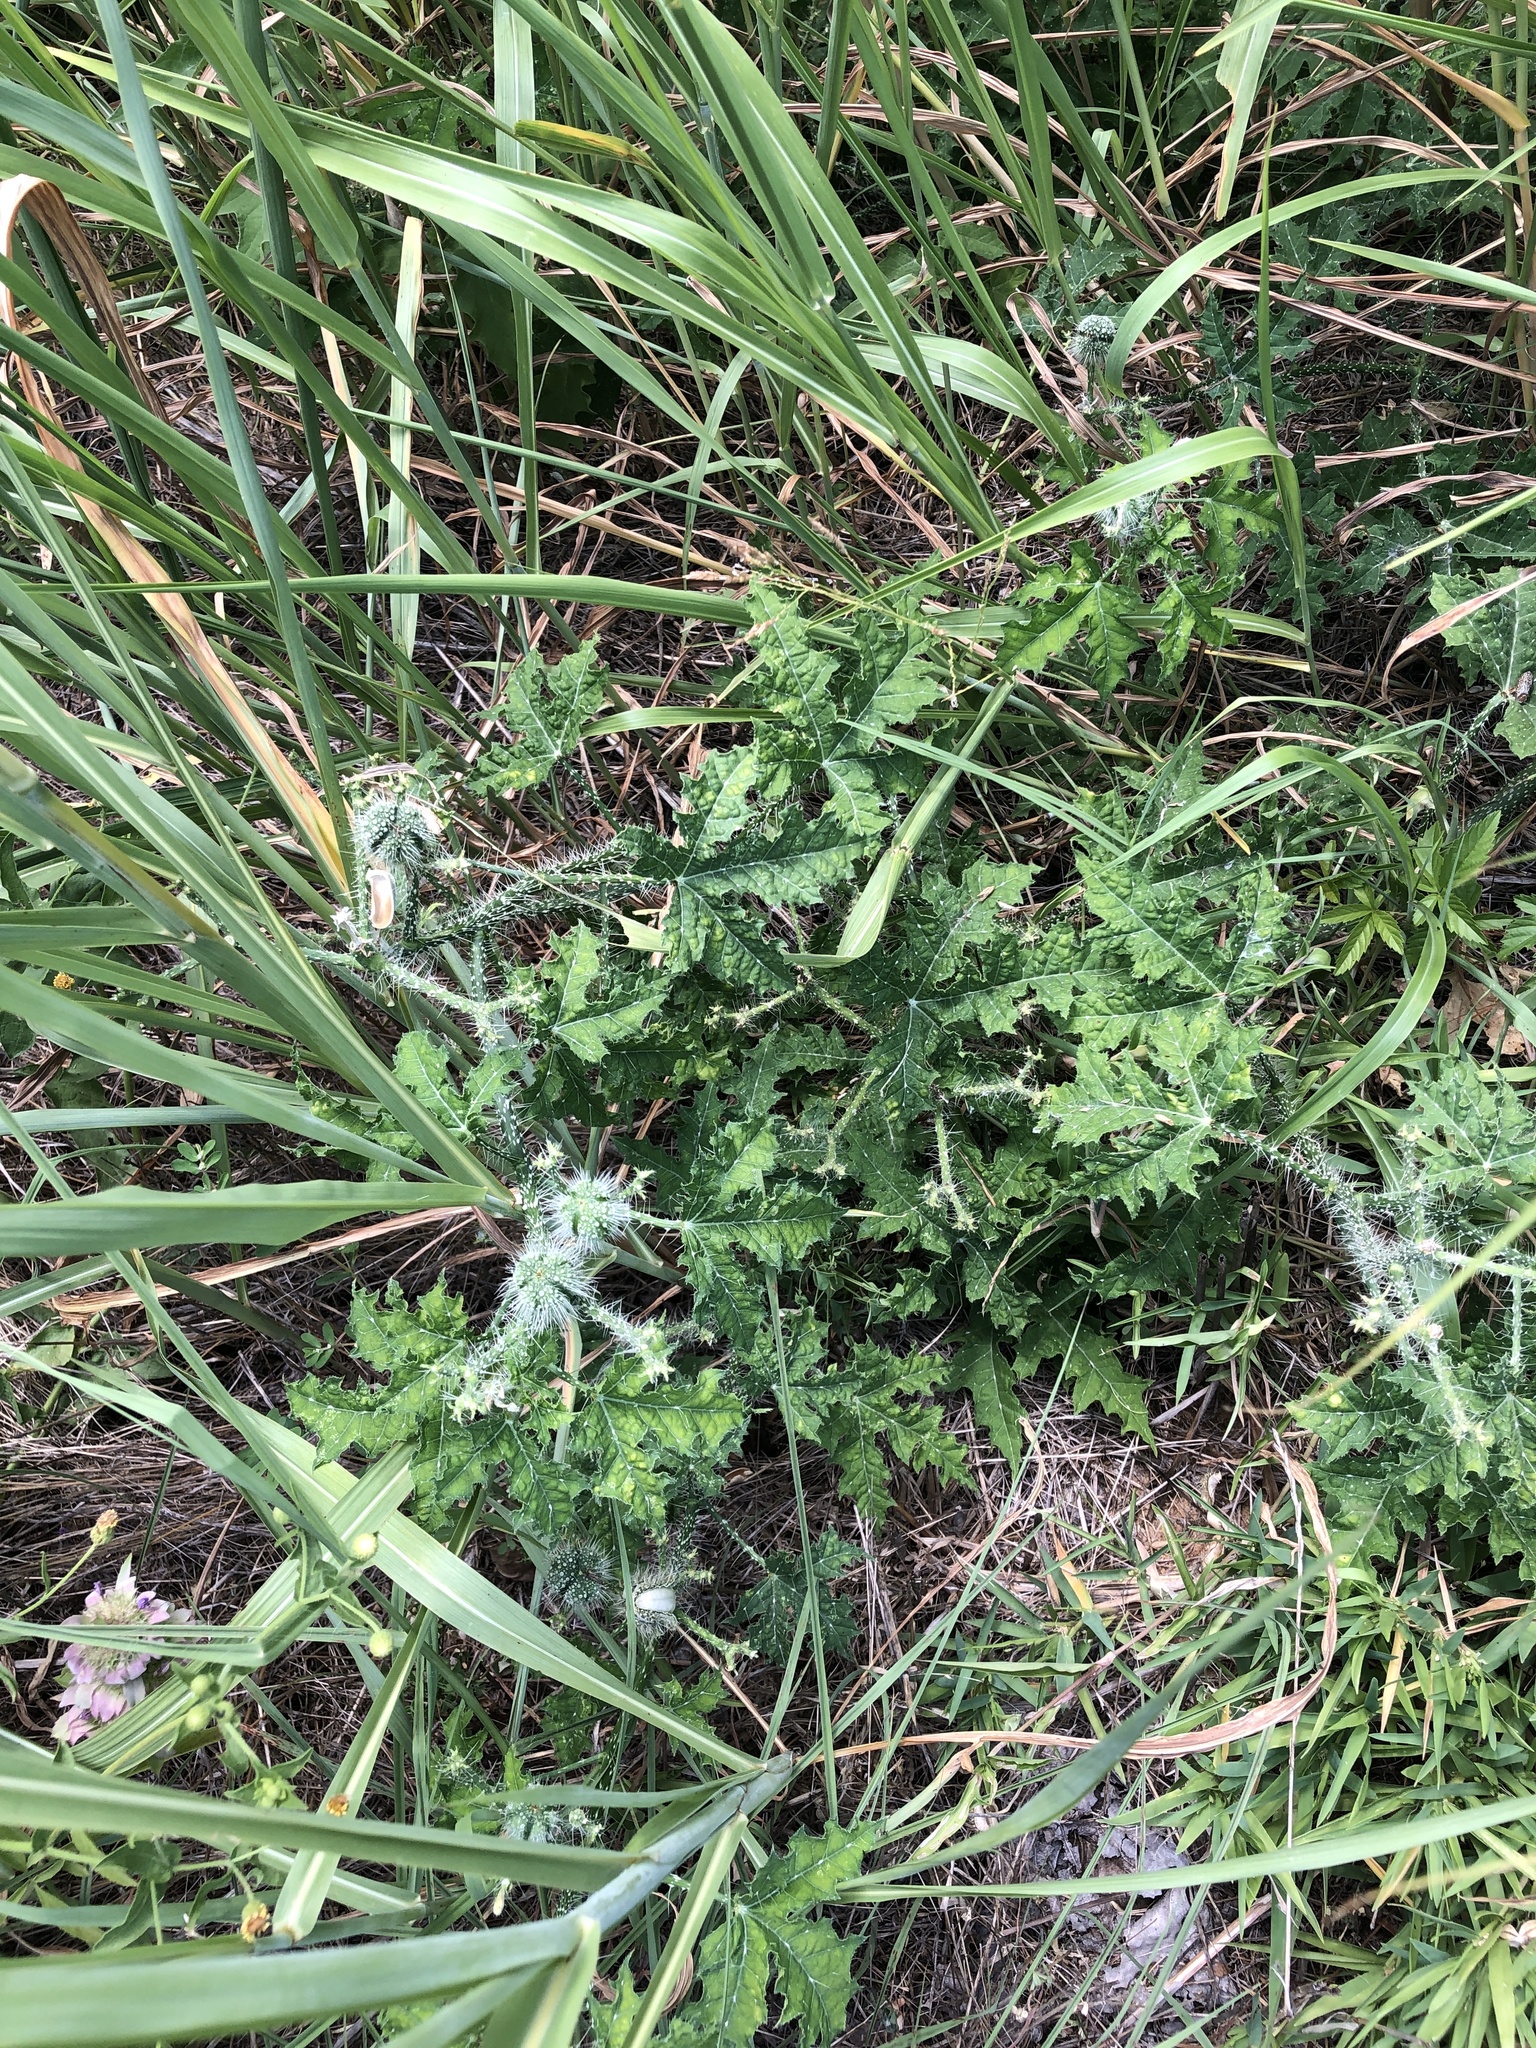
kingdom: Plantae
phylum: Tracheophyta
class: Magnoliopsida
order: Malpighiales
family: Euphorbiaceae
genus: Cnidoscolus
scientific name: Cnidoscolus texanus
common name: Texas bull-nettle
